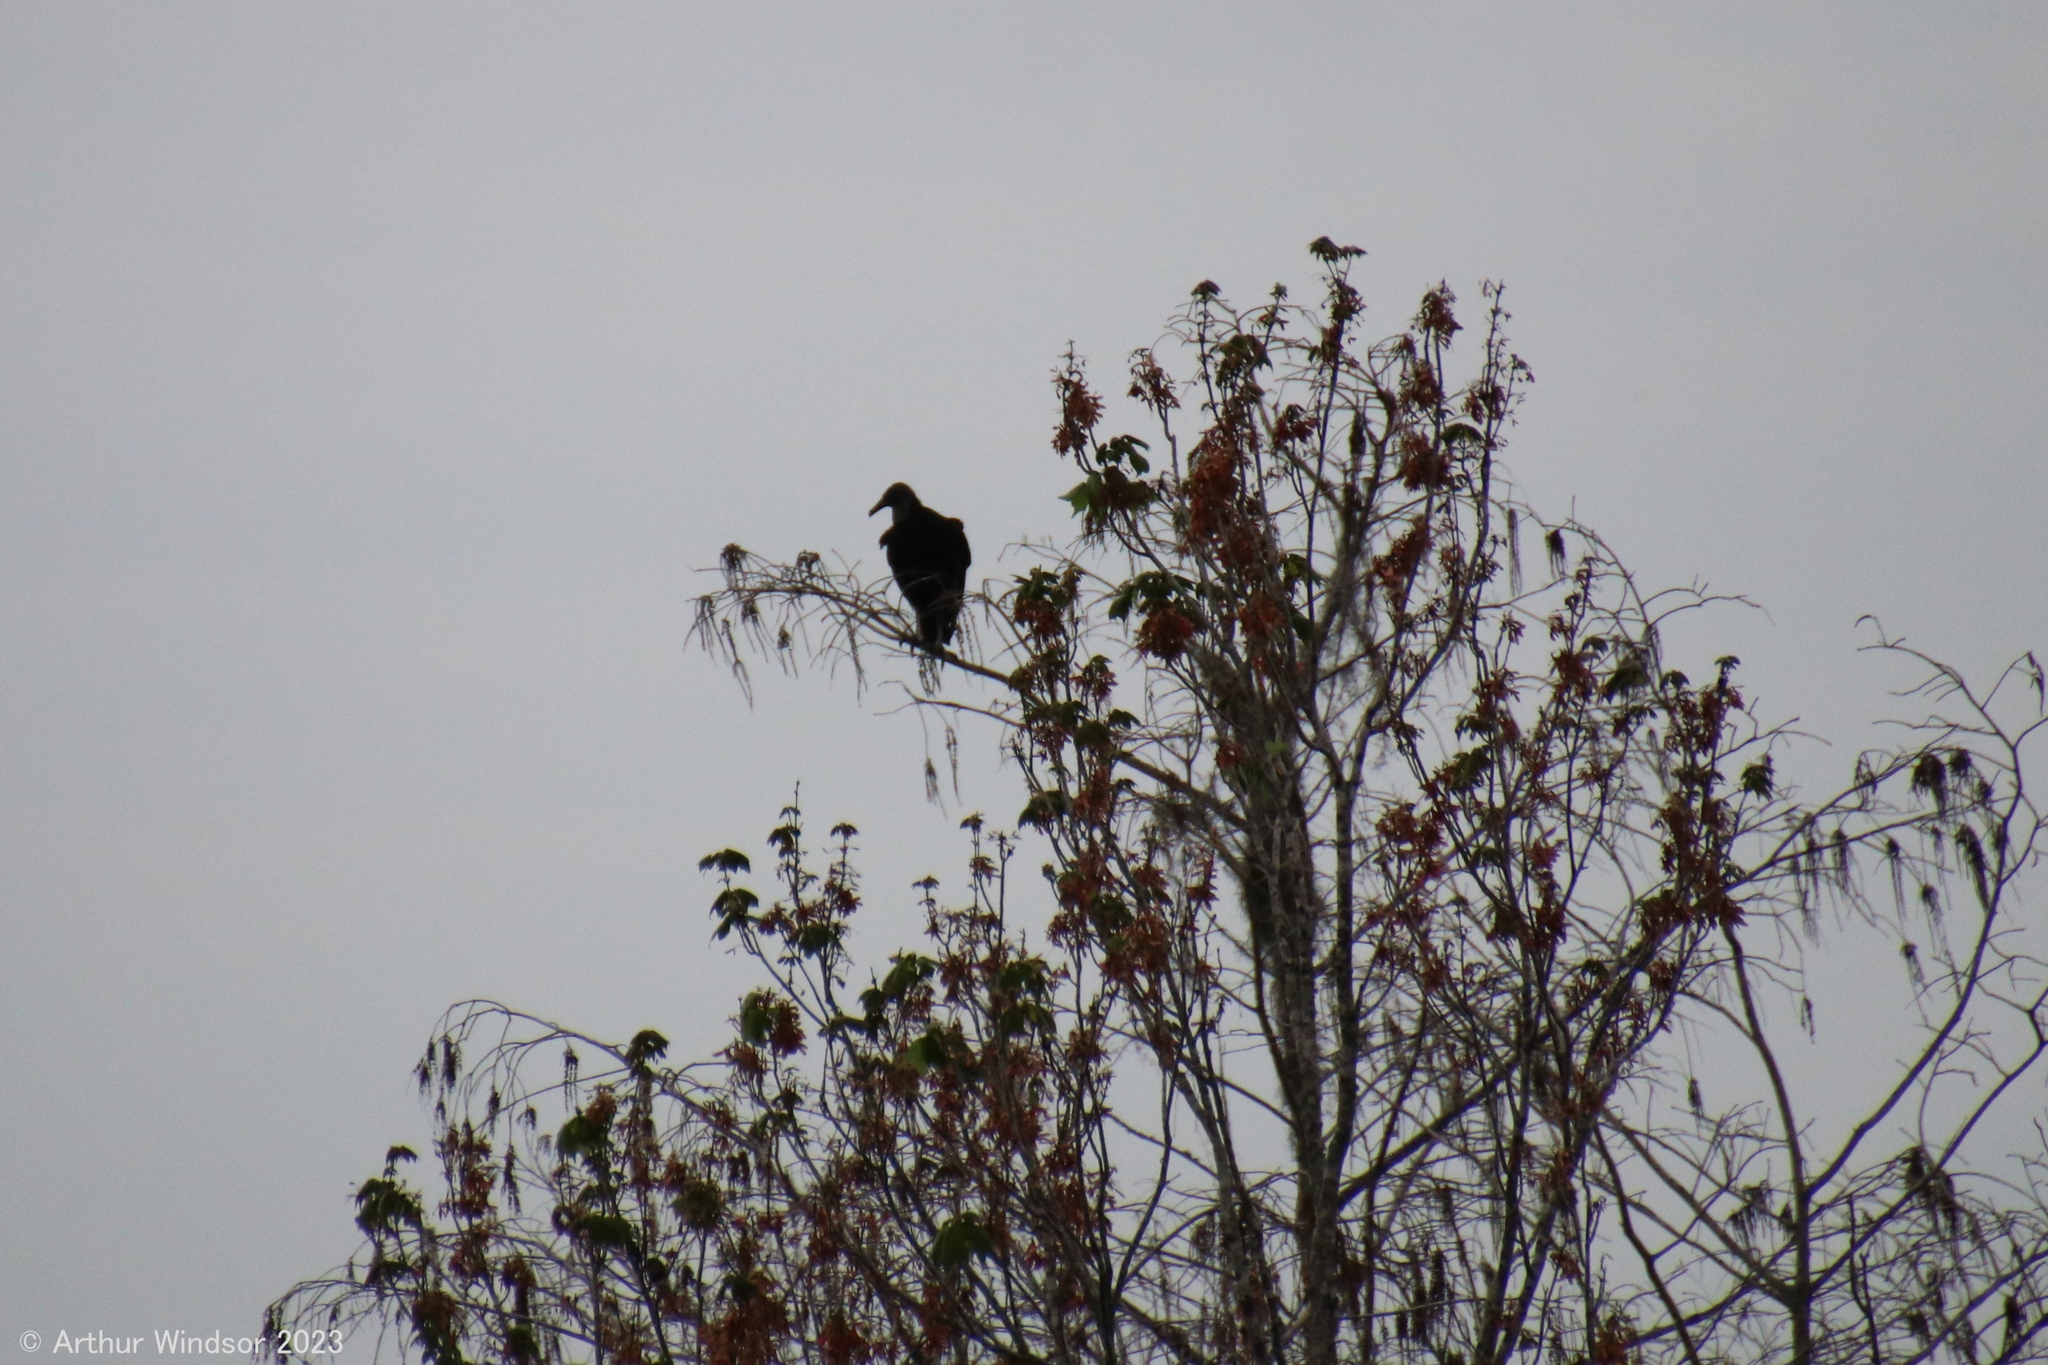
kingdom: Animalia
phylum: Chordata
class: Aves
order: Accipitriformes
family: Cathartidae
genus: Coragyps
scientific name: Coragyps atratus
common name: Black vulture
